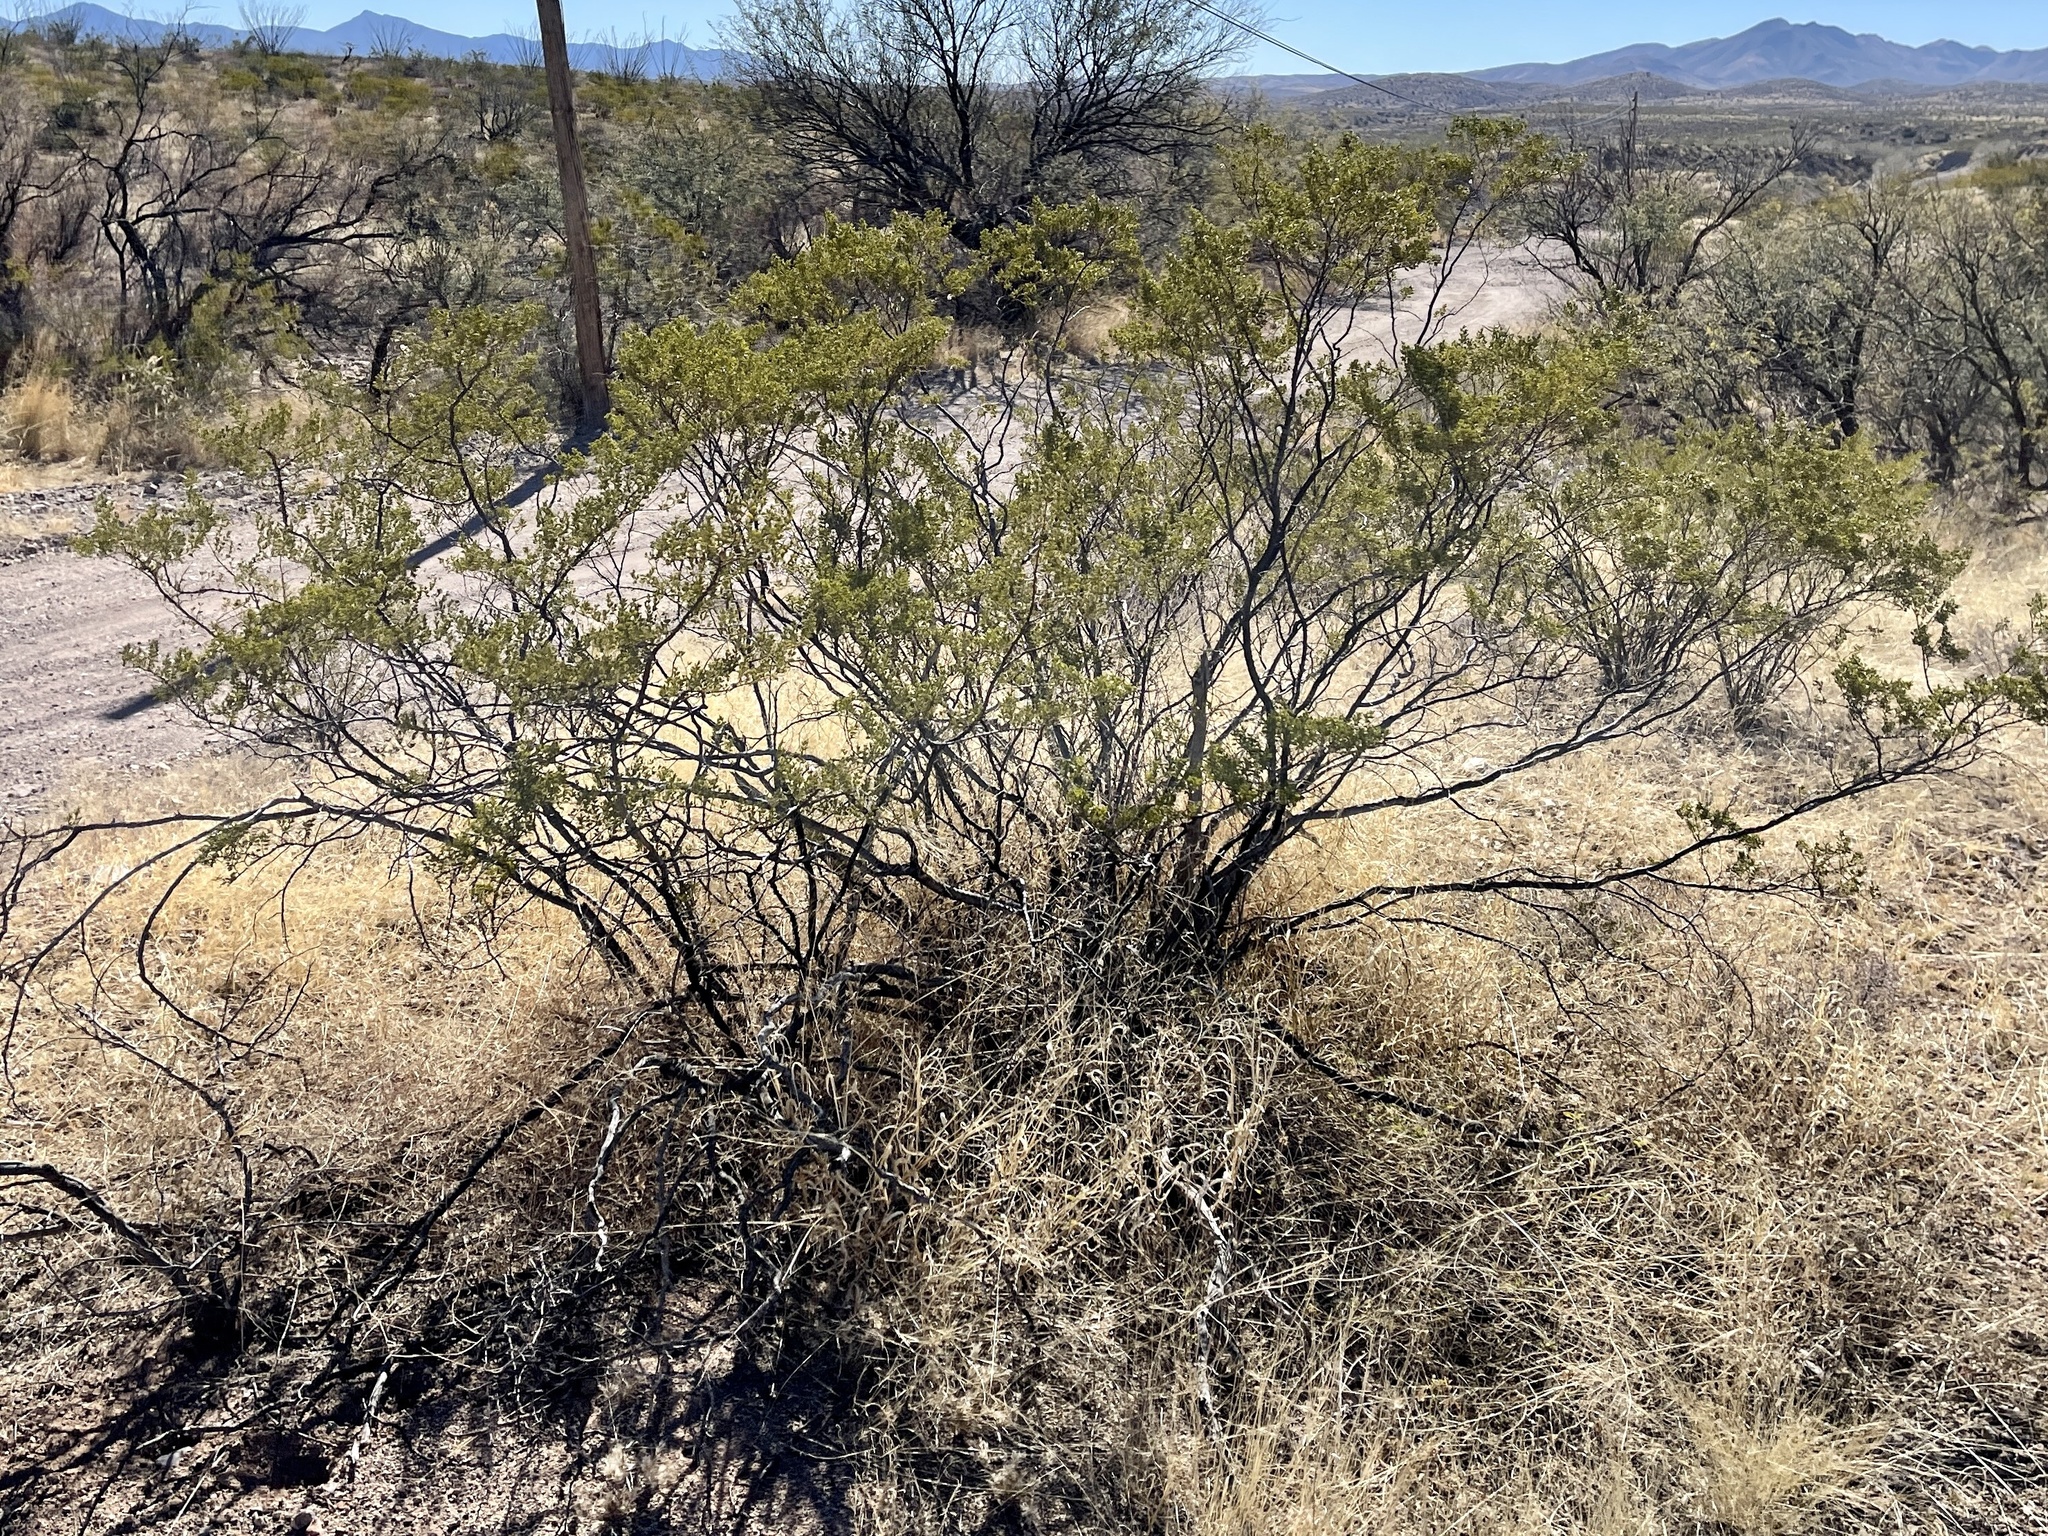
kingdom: Plantae
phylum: Tracheophyta
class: Magnoliopsida
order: Zygophyllales
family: Zygophyllaceae
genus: Larrea
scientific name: Larrea tridentata
